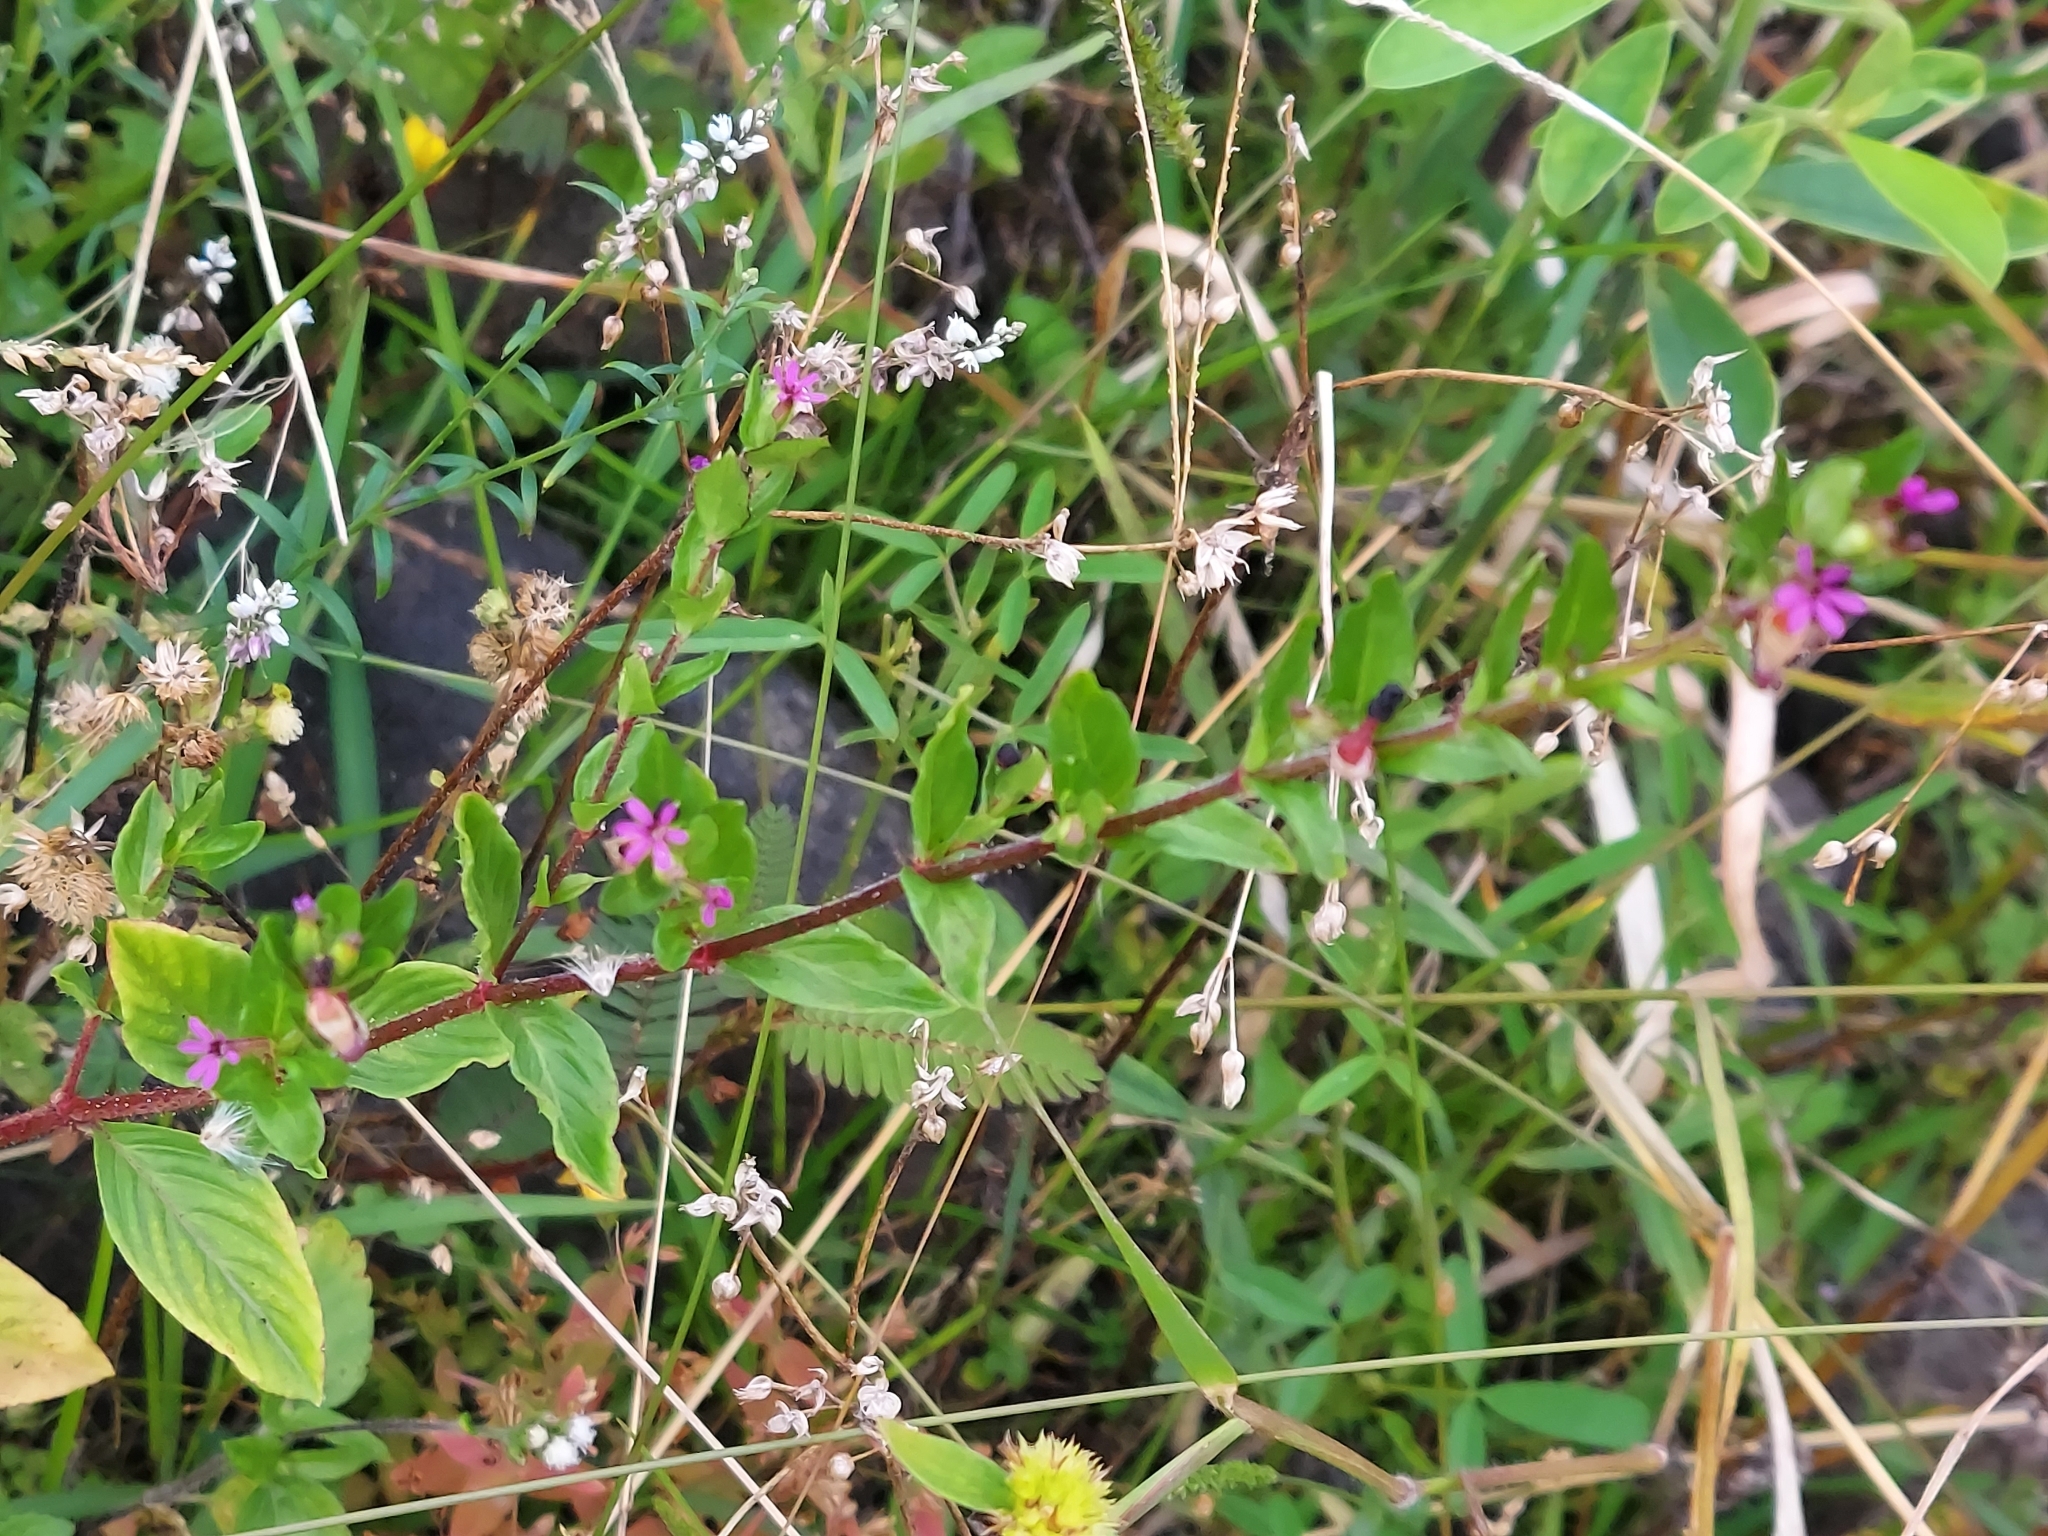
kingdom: Plantae
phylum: Tracheophyta
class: Magnoliopsida
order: Myrtales
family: Lythraceae
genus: Cuphea
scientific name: Cuphea carthagenensis
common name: Colombian waxweed
